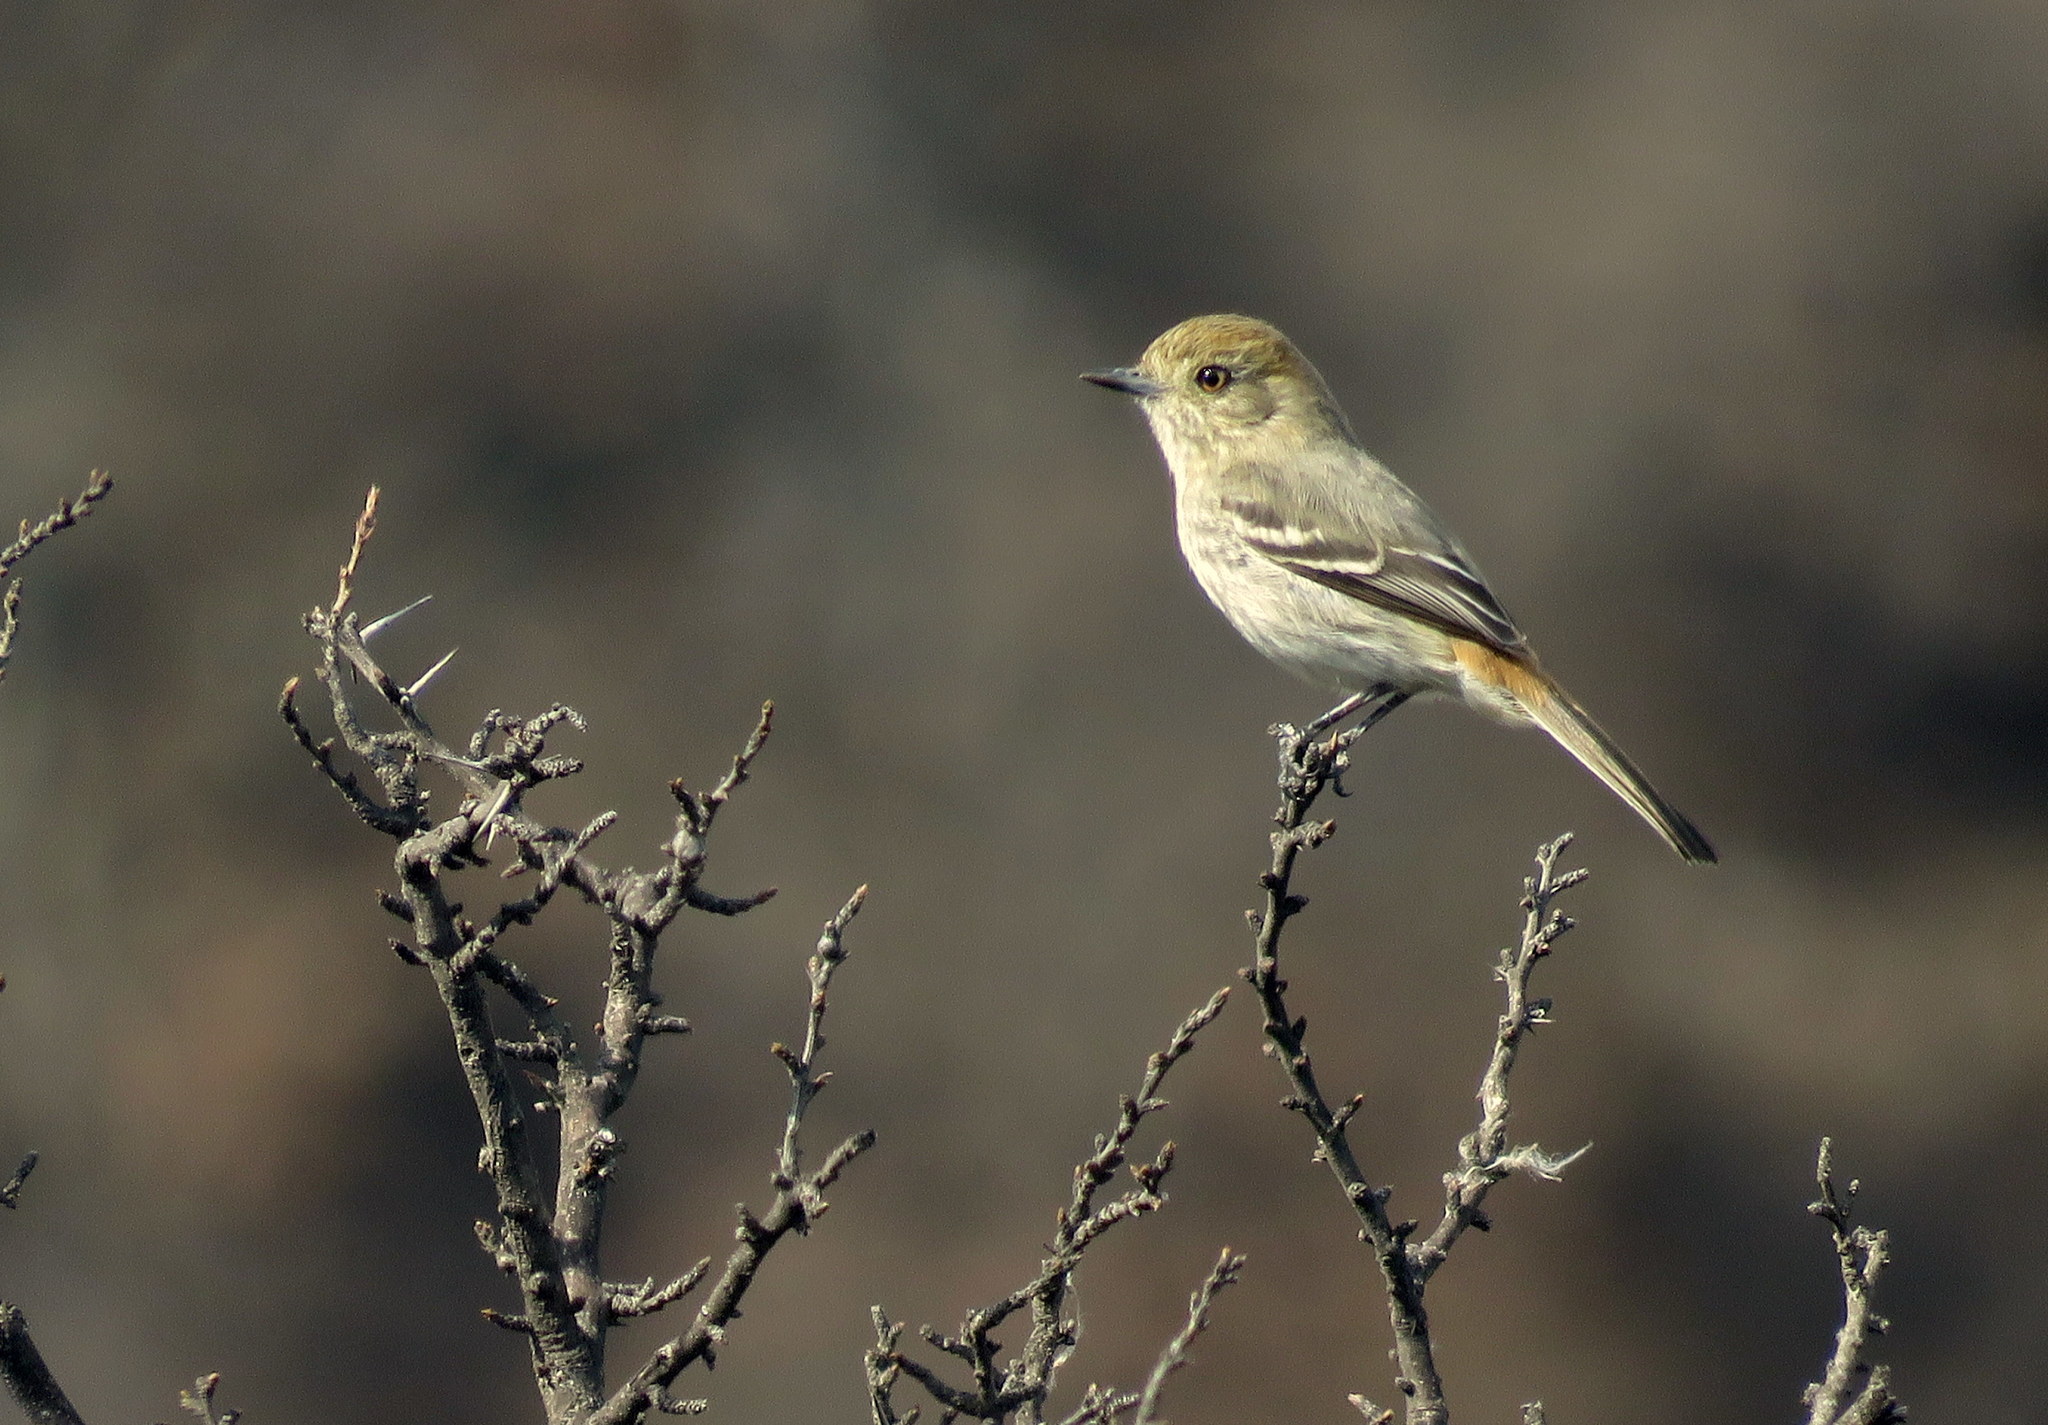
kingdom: Animalia
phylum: Chordata
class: Aves
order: Passeriformes
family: Tyrannidae
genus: Knipolegus
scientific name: Knipolegus striaticeps
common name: Cinereous tyrant
